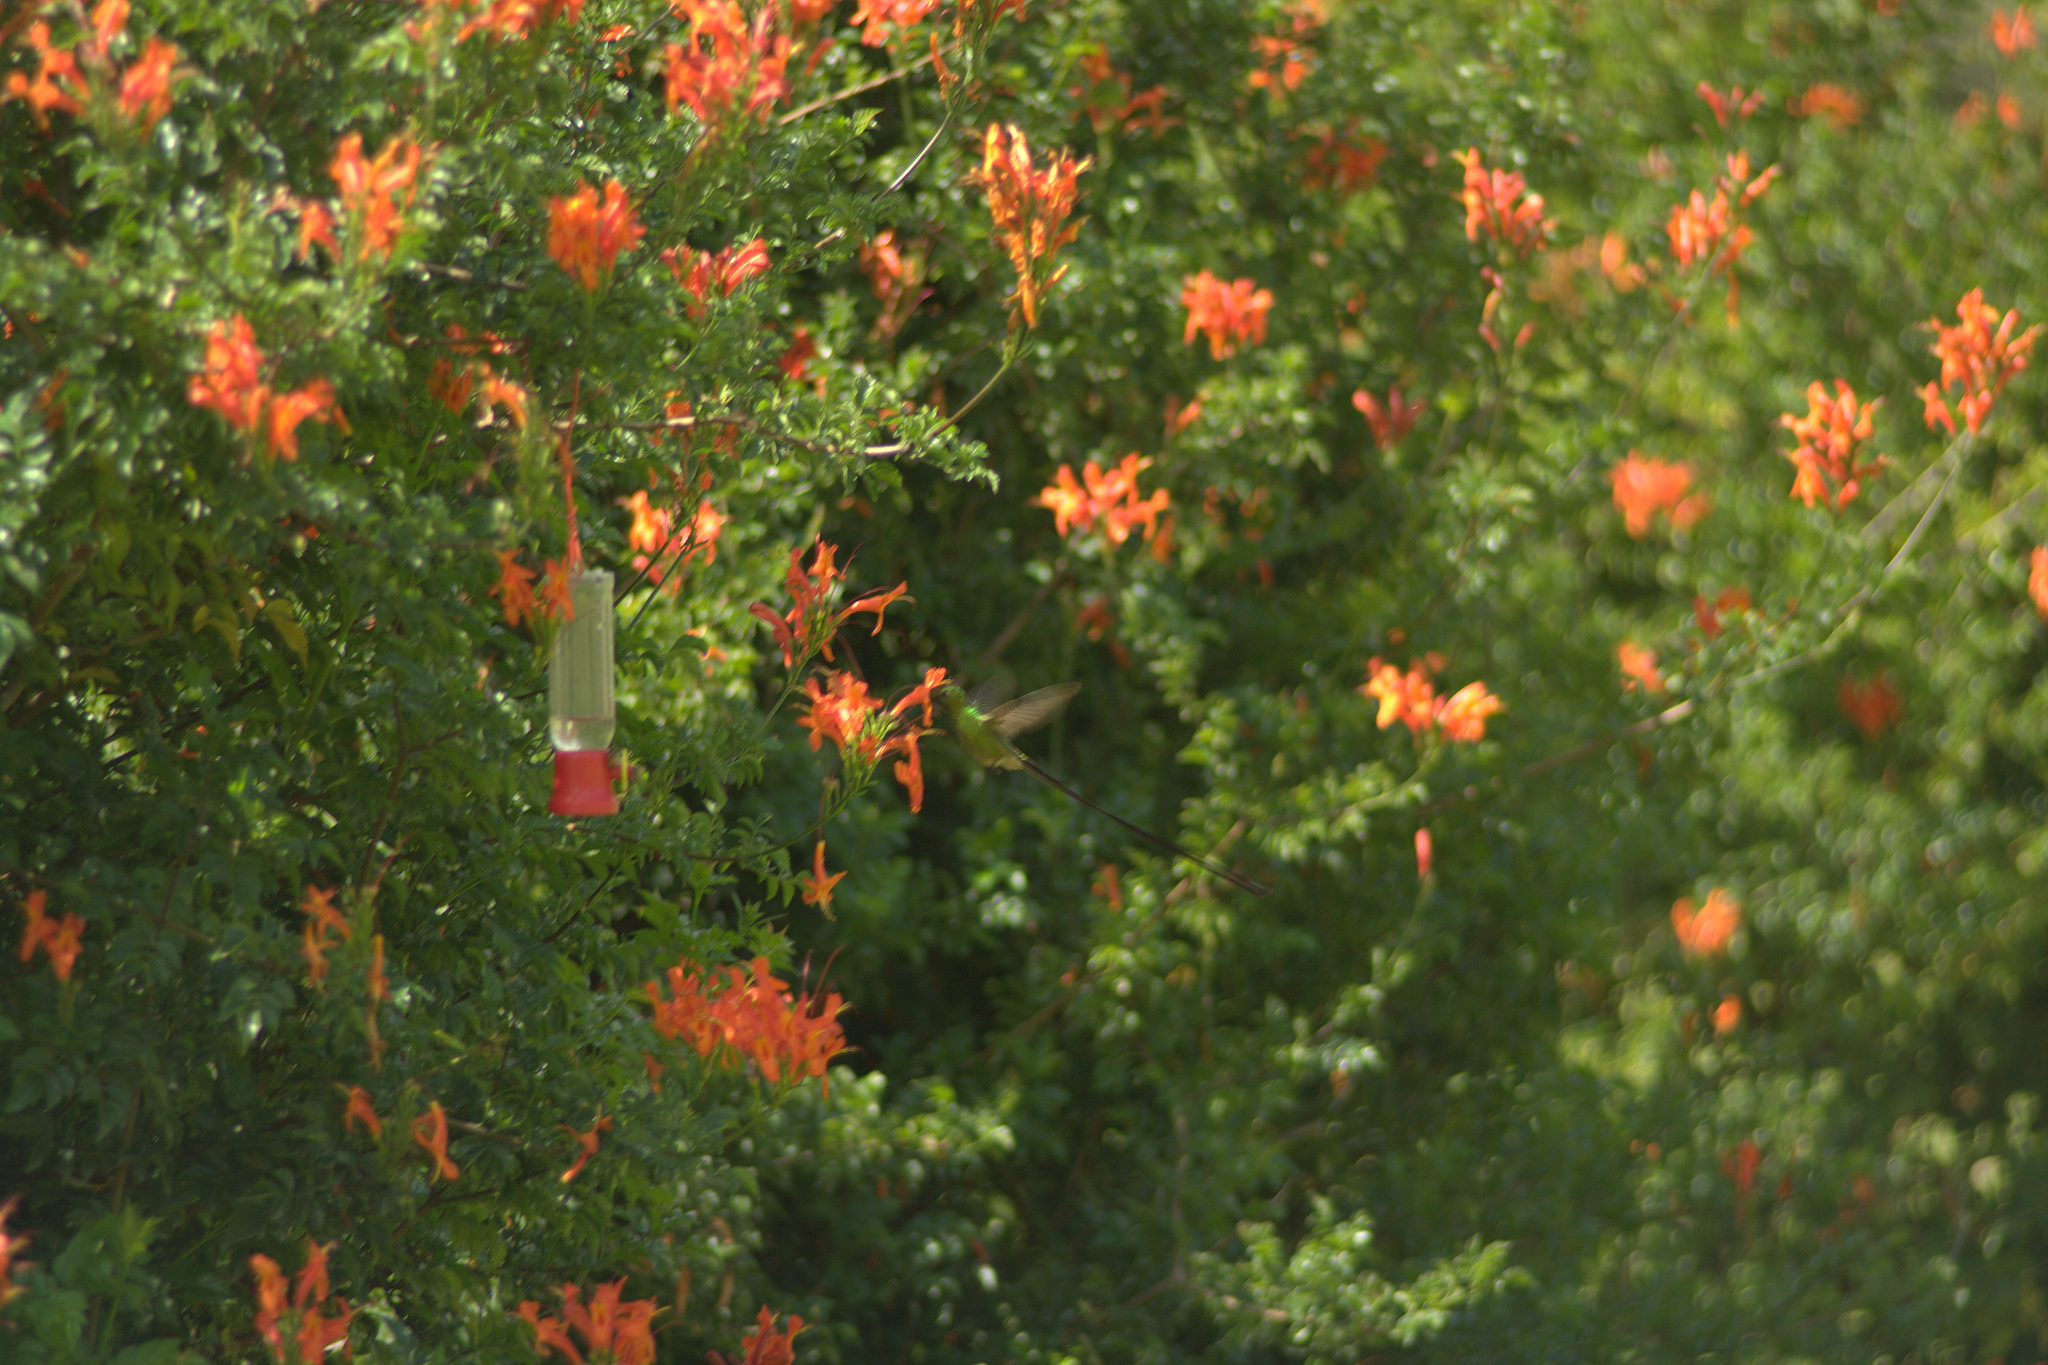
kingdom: Animalia
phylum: Chordata
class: Aves
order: Apodiformes
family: Trochilidae
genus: Lesbia
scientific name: Lesbia victoriae
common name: Black-tailed trainbearer
